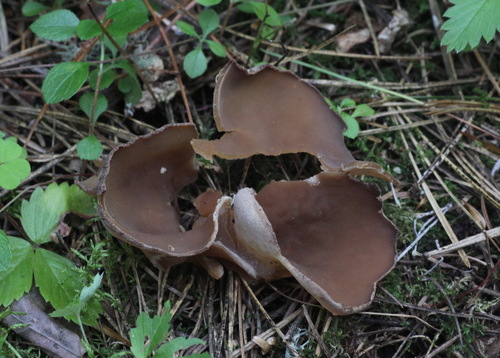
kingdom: Fungi
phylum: Ascomycota
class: Pezizomycetes
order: Pezizales
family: Pezizaceae
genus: Peziza
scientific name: Peziza
